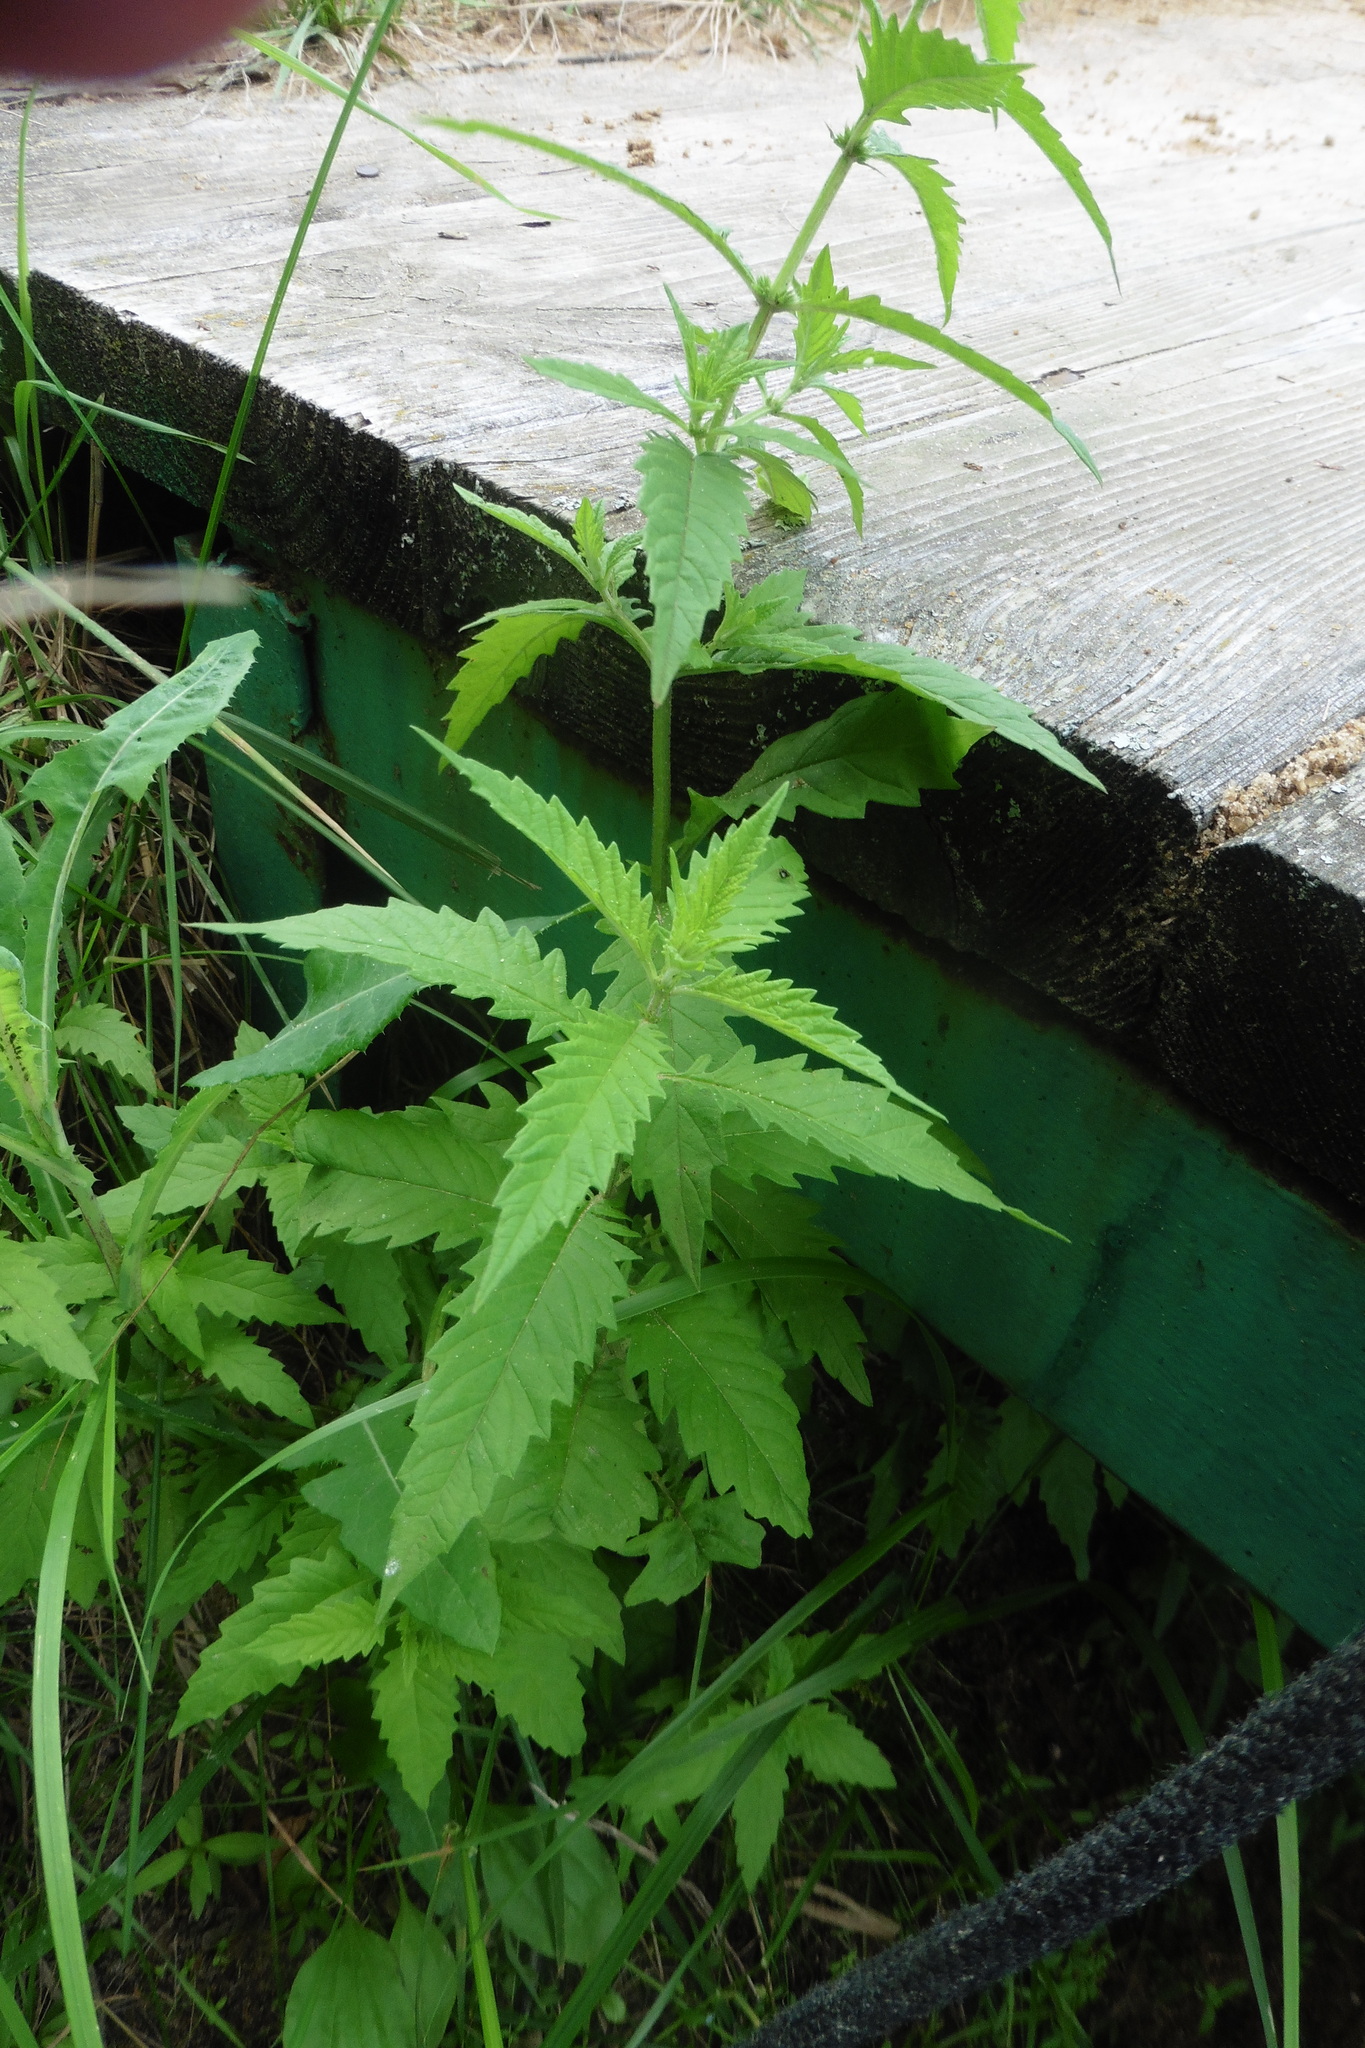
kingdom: Plantae
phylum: Tracheophyta
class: Magnoliopsida
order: Lamiales
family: Lamiaceae
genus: Lycopus
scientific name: Lycopus europaeus
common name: European bugleweed
